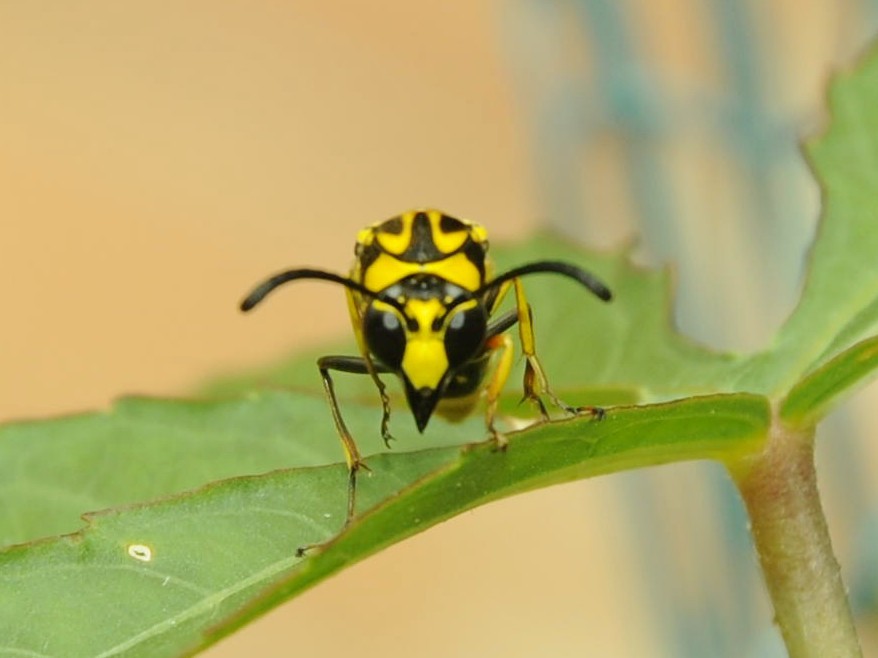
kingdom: Animalia
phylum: Arthropoda
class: Insecta
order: Hymenoptera
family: Eumenidae
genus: Phimenes
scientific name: Phimenes flavopictus
